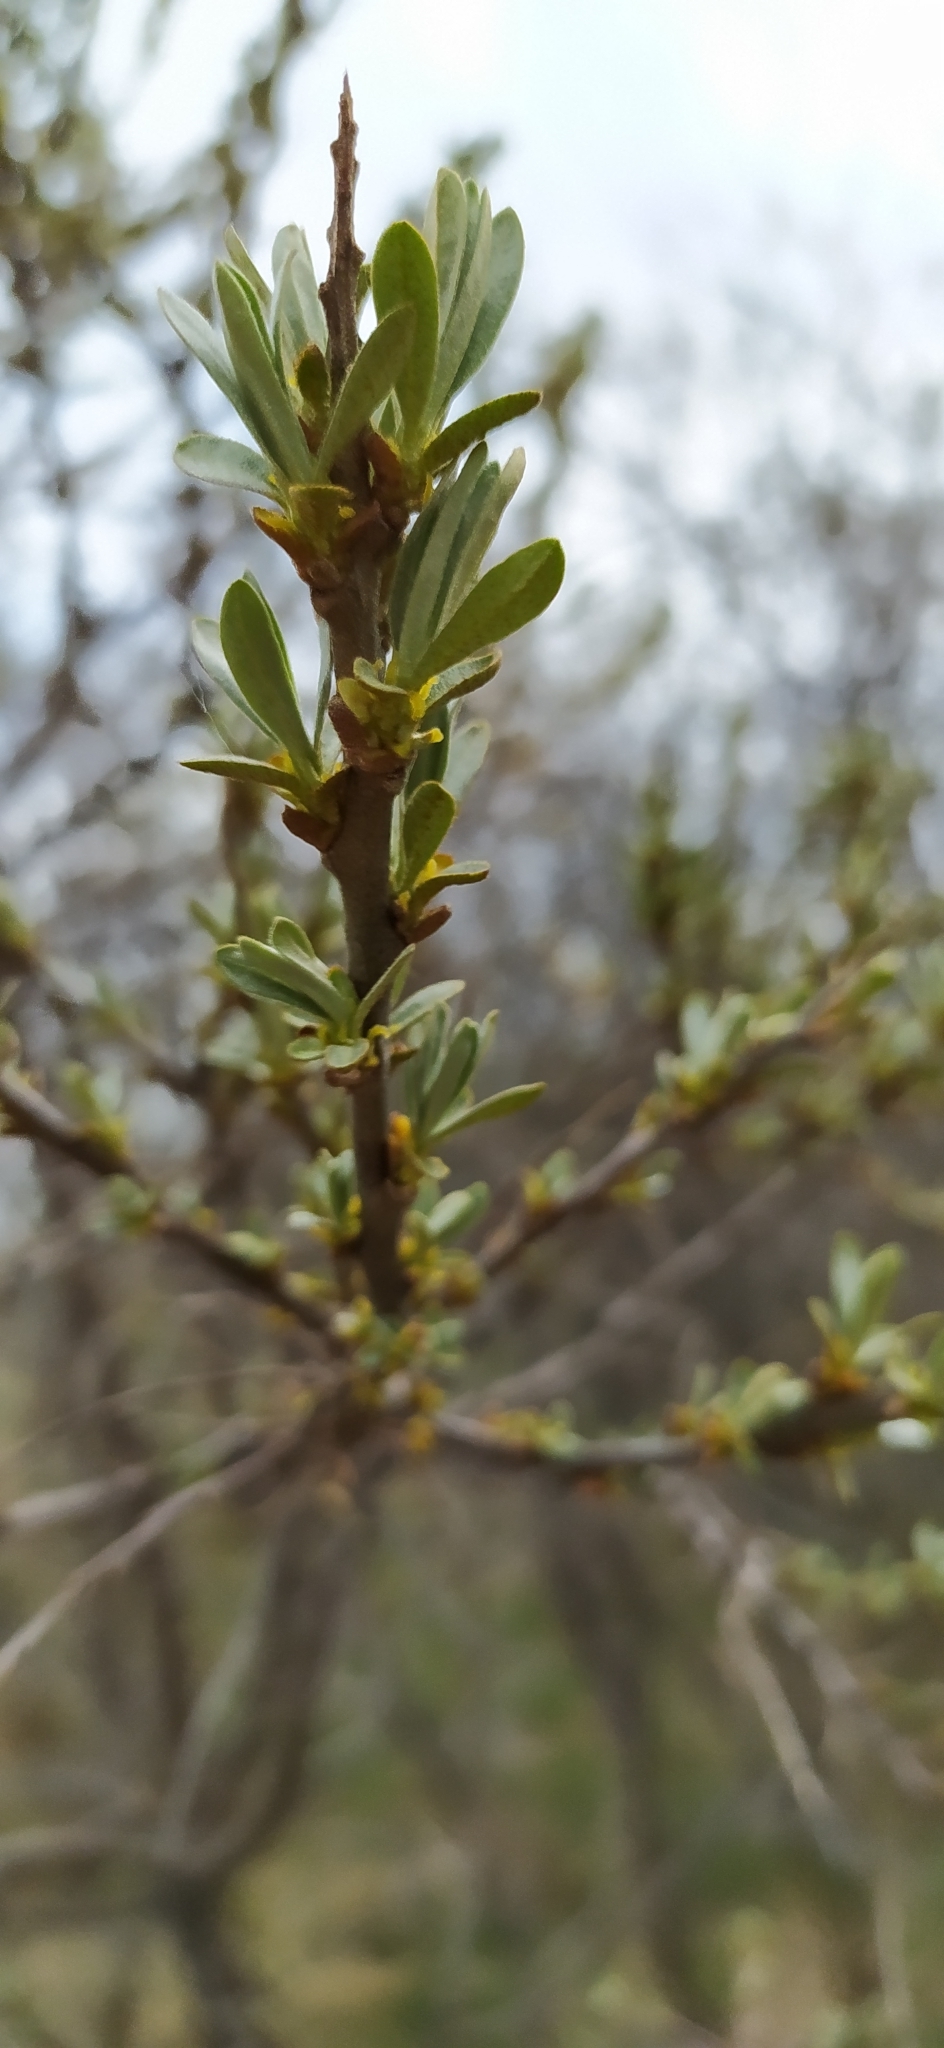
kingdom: Plantae
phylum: Tracheophyta
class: Magnoliopsida
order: Rosales
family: Elaeagnaceae
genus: Hippophae
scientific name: Hippophae rhamnoides
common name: Sea-buckthorn
